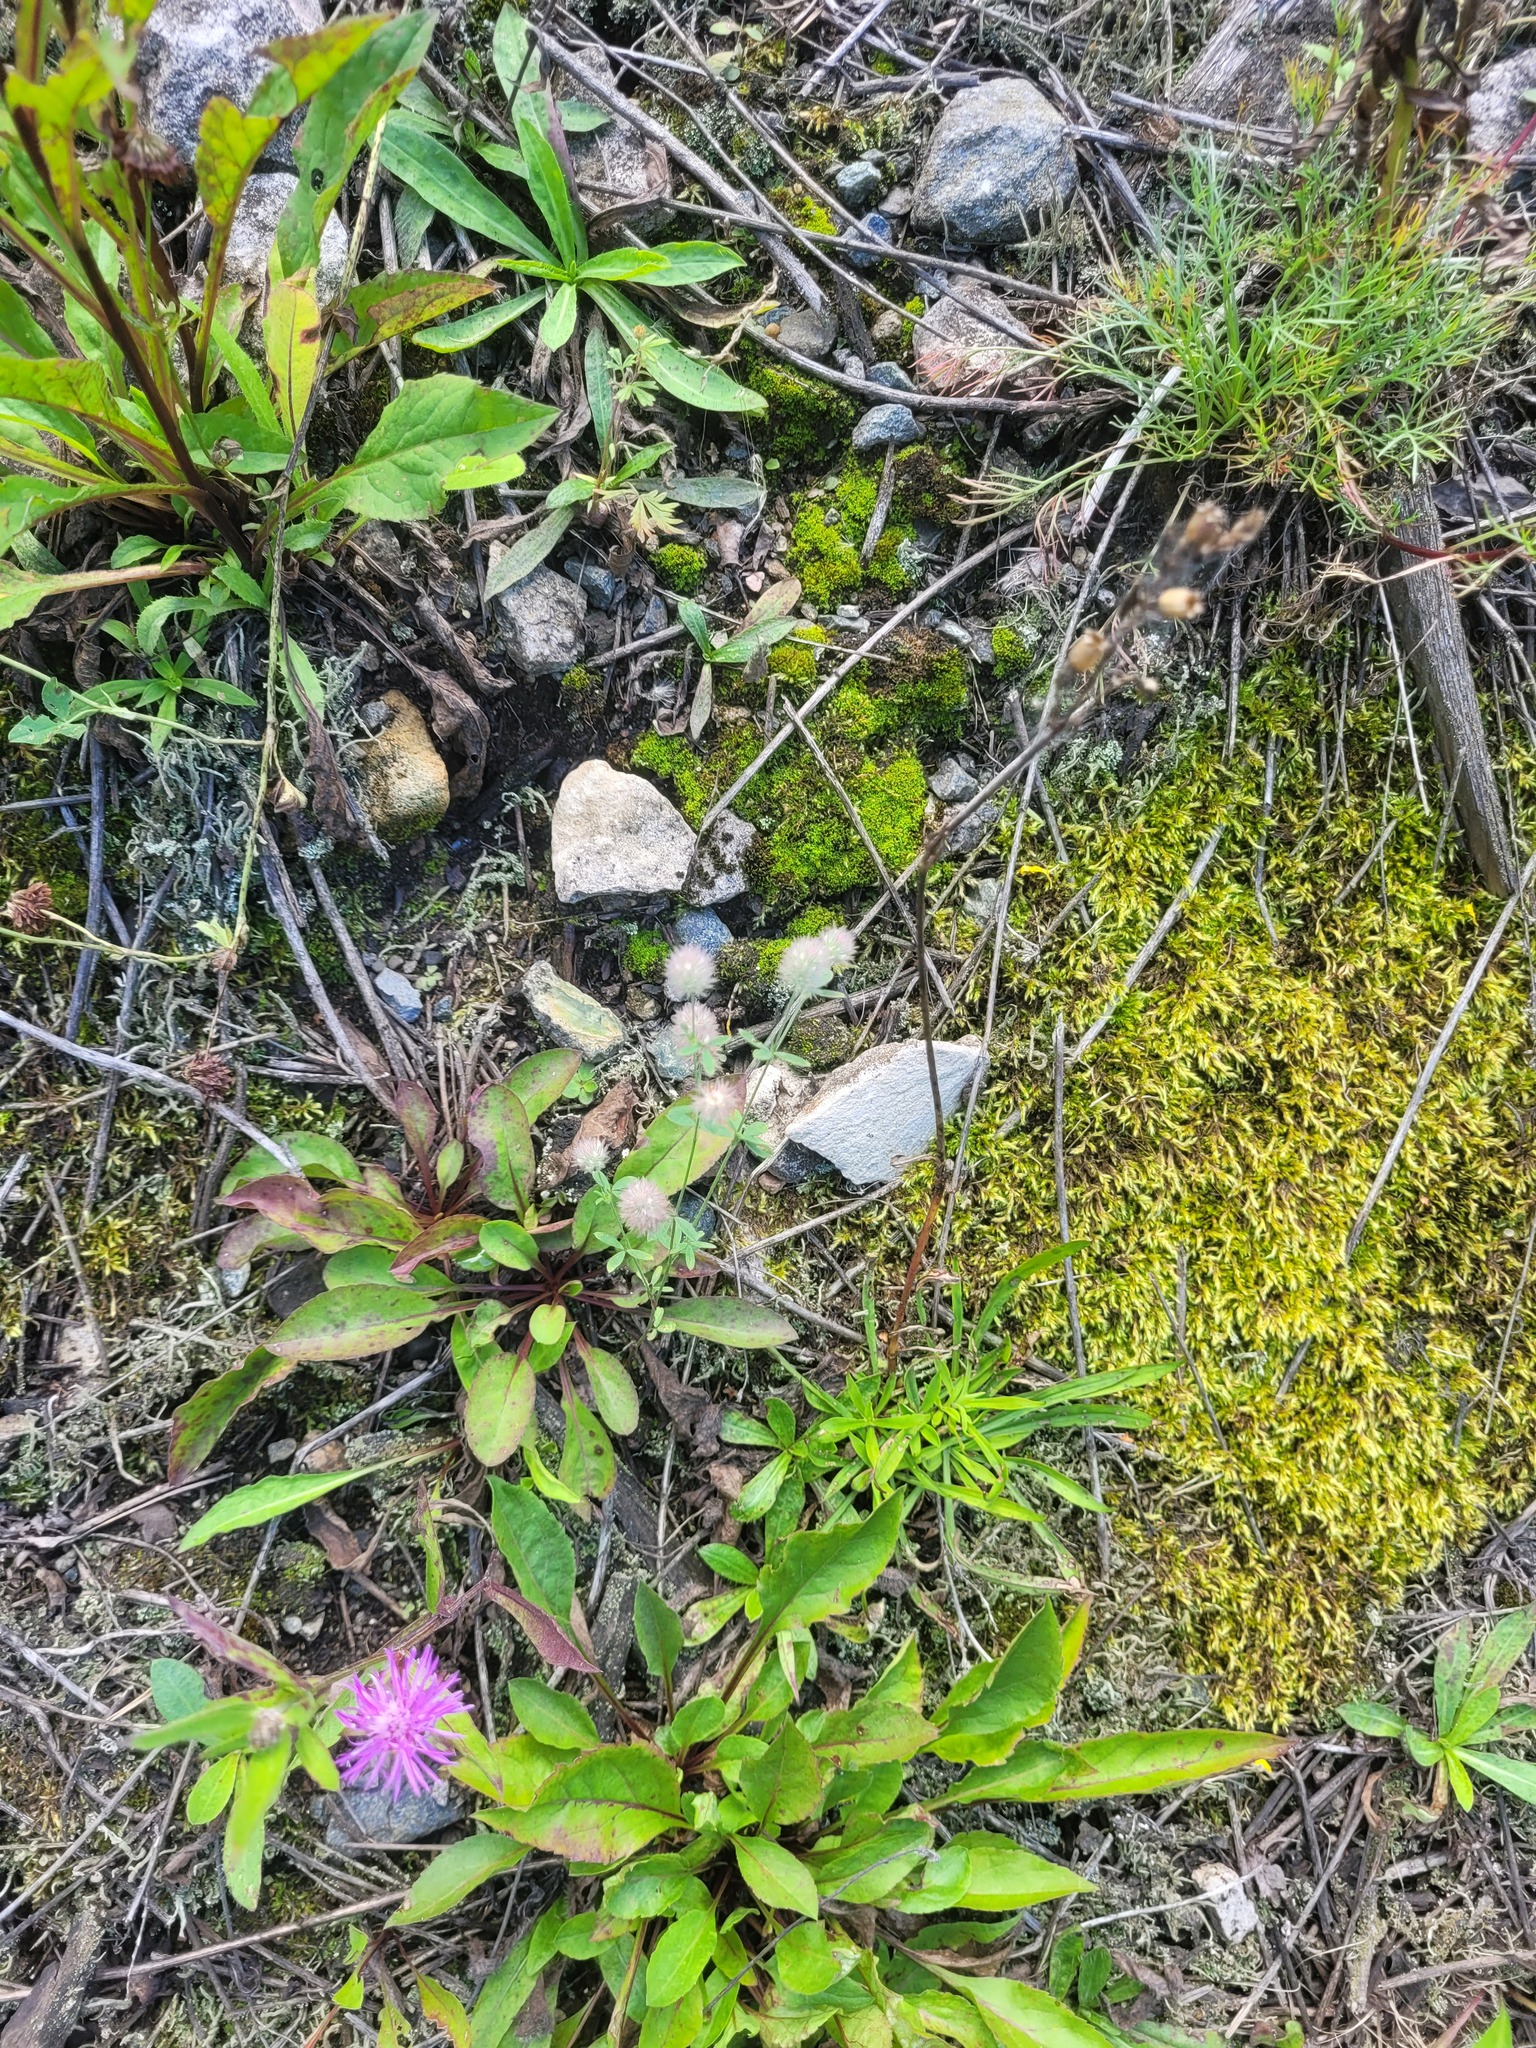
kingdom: Plantae
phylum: Tracheophyta
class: Magnoliopsida
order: Fabales
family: Fabaceae
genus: Trifolium
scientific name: Trifolium arvense
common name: Hare's-foot clover
